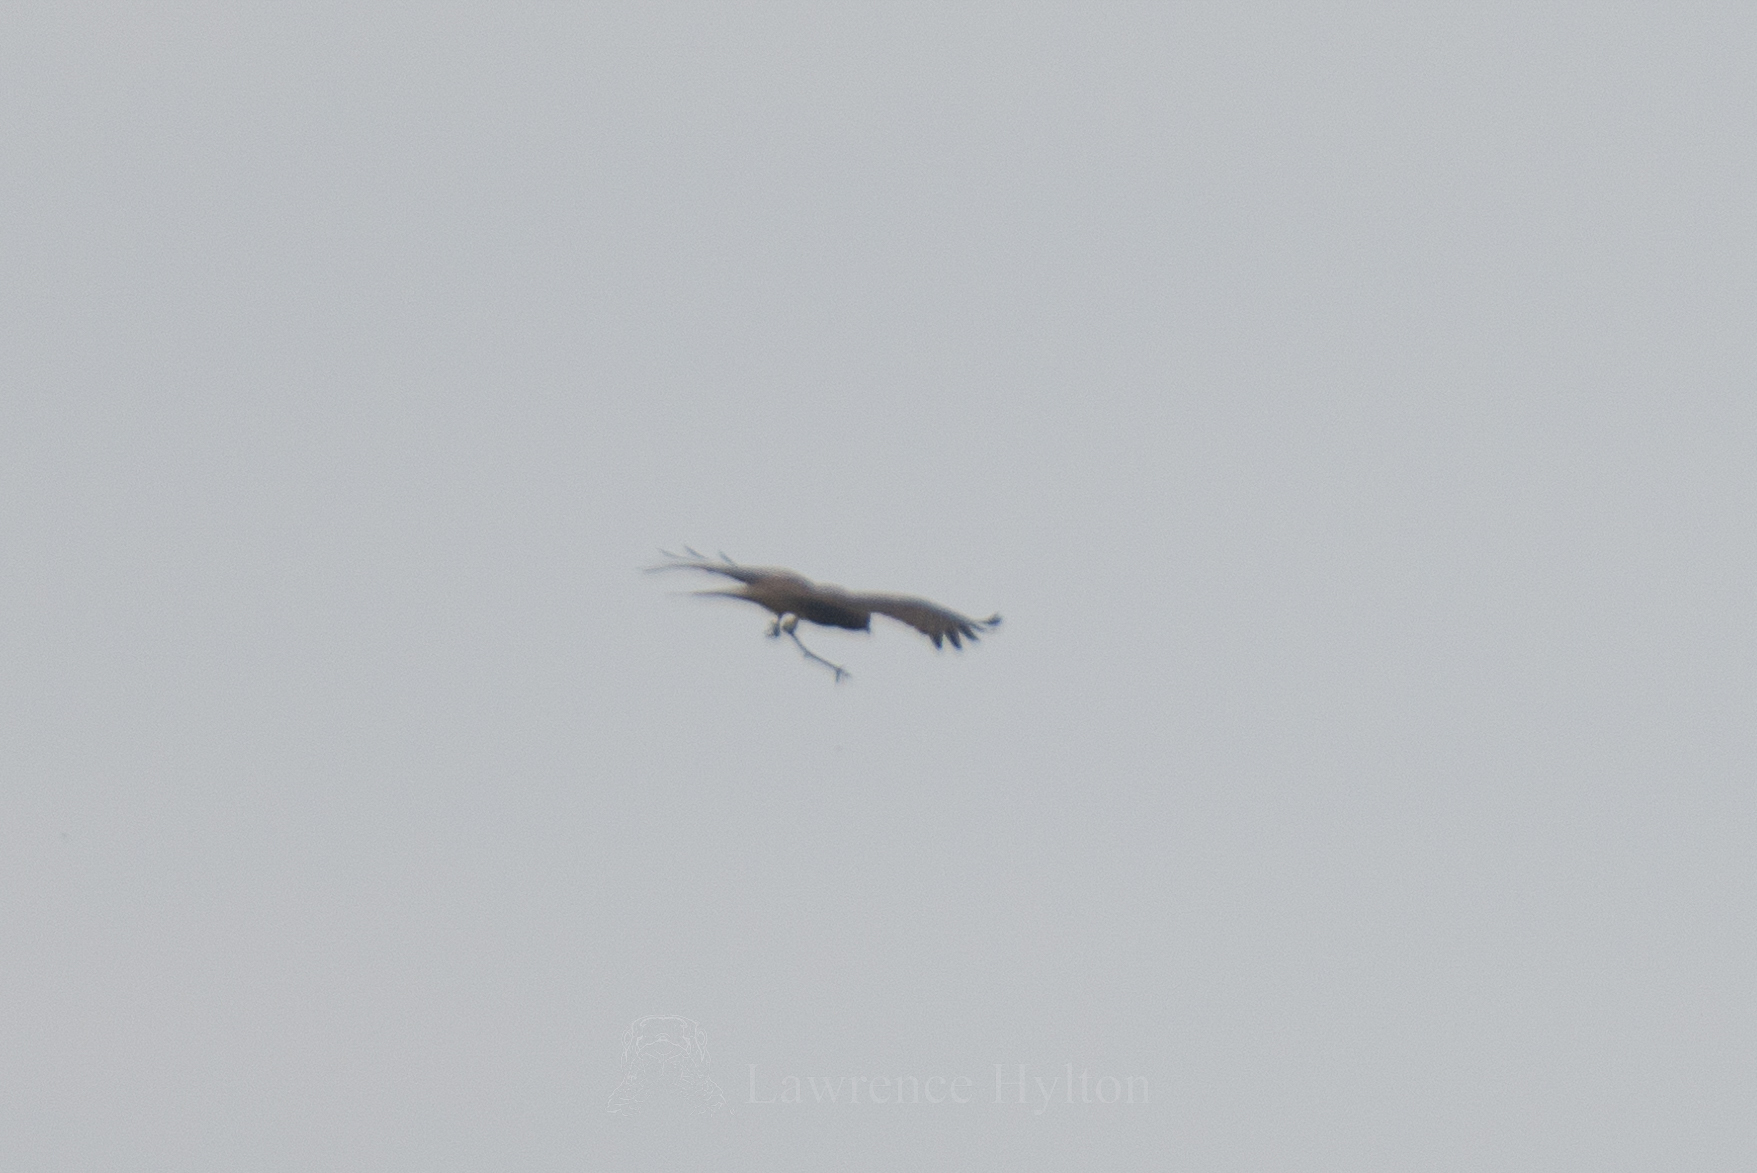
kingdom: Animalia
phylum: Chordata
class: Aves
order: Accipitriformes
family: Accipitridae
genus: Milvus
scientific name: Milvus migrans
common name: Black kite
